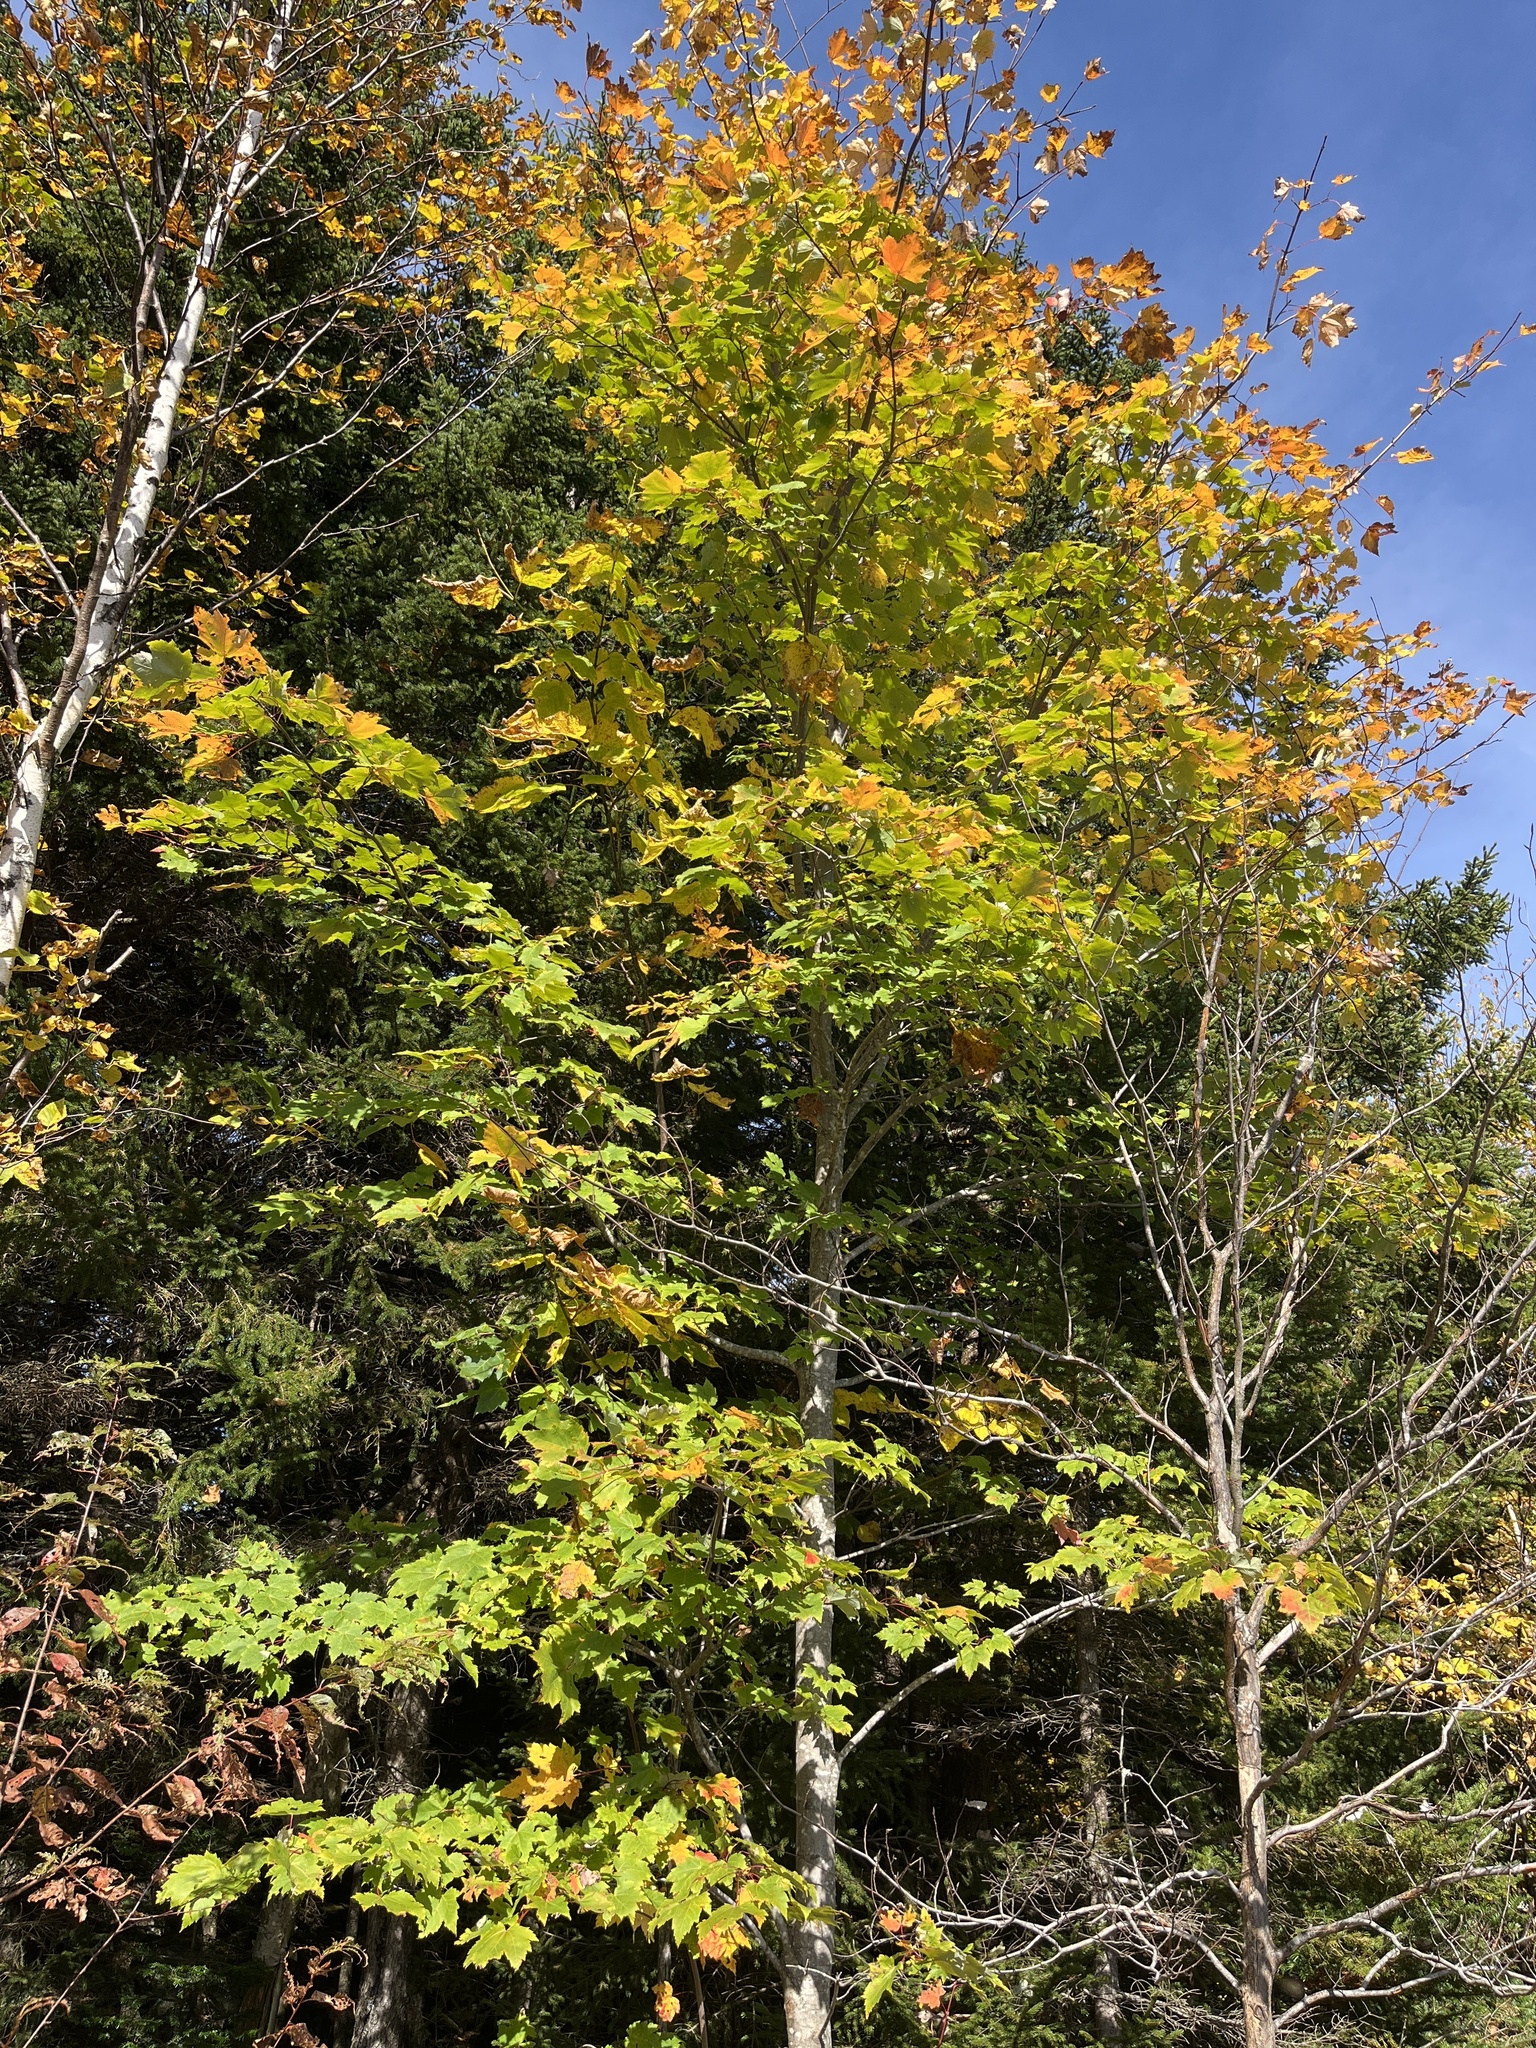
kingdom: Plantae
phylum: Tracheophyta
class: Magnoliopsida
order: Sapindales
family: Sapindaceae
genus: Acer
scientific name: Acer rubrum
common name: Red maple
